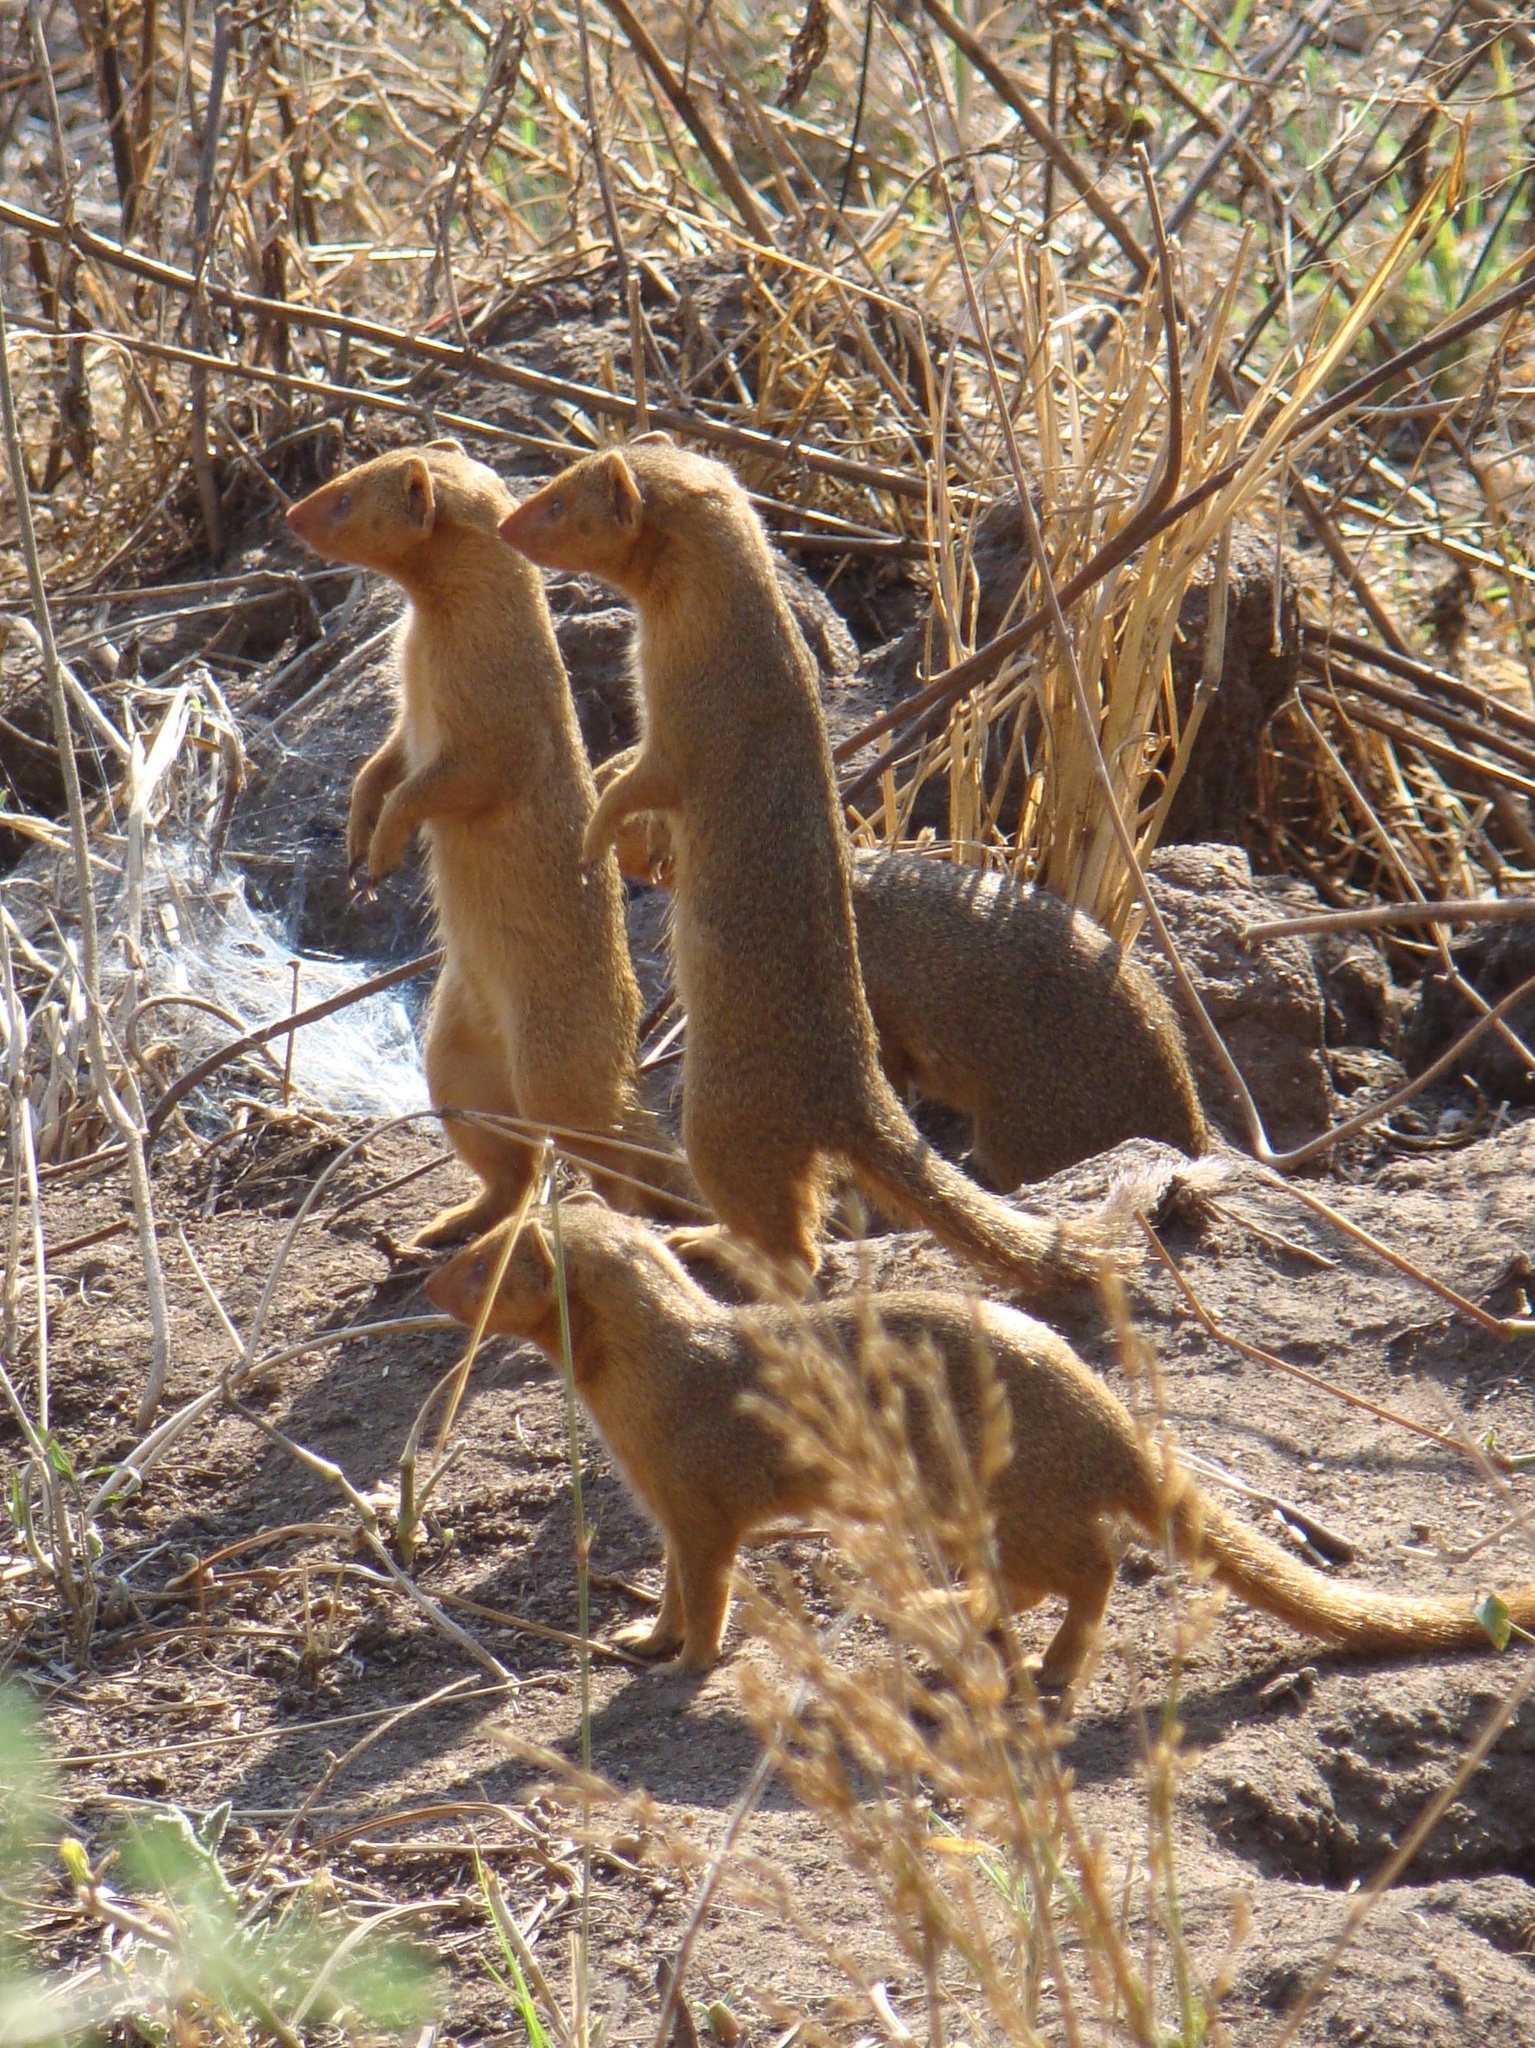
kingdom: Animalia
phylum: Chordata
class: Mammalia
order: Carnivora
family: Herpestidae
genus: Helogale
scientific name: Helogale parvula
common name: Common dwarf mongoose
